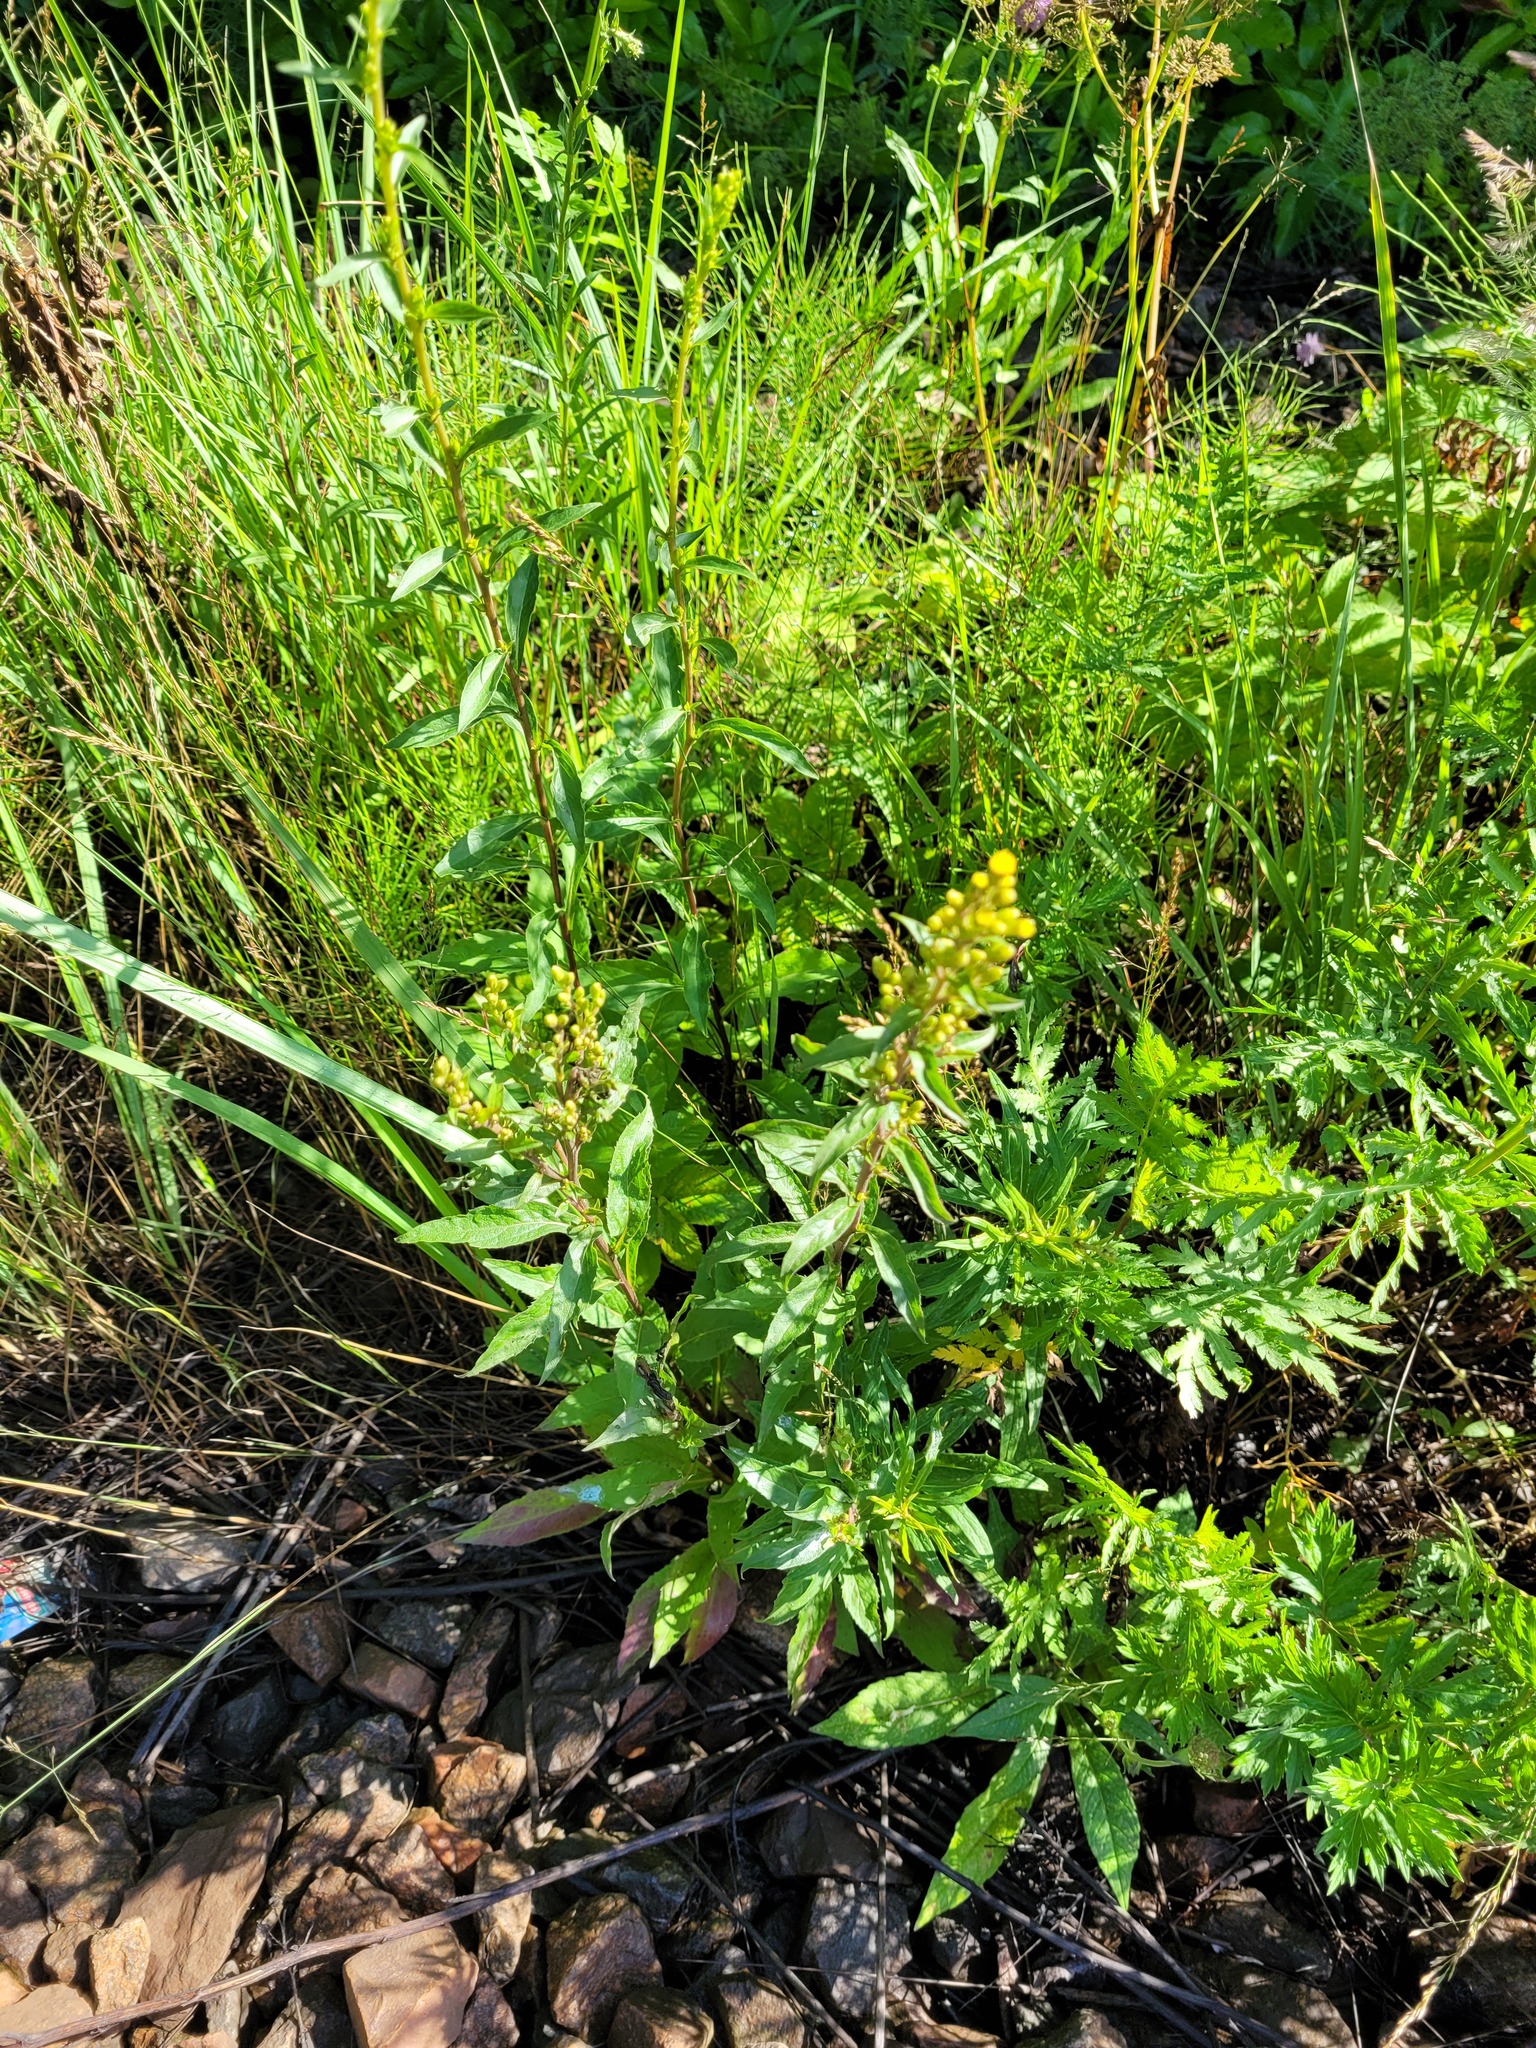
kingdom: Plantae
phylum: Tracheophyta
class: Magnoliopsida
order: Asterales
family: Asteraceae
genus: Solidago
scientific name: Solidago virgaurea
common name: Goldenrod
